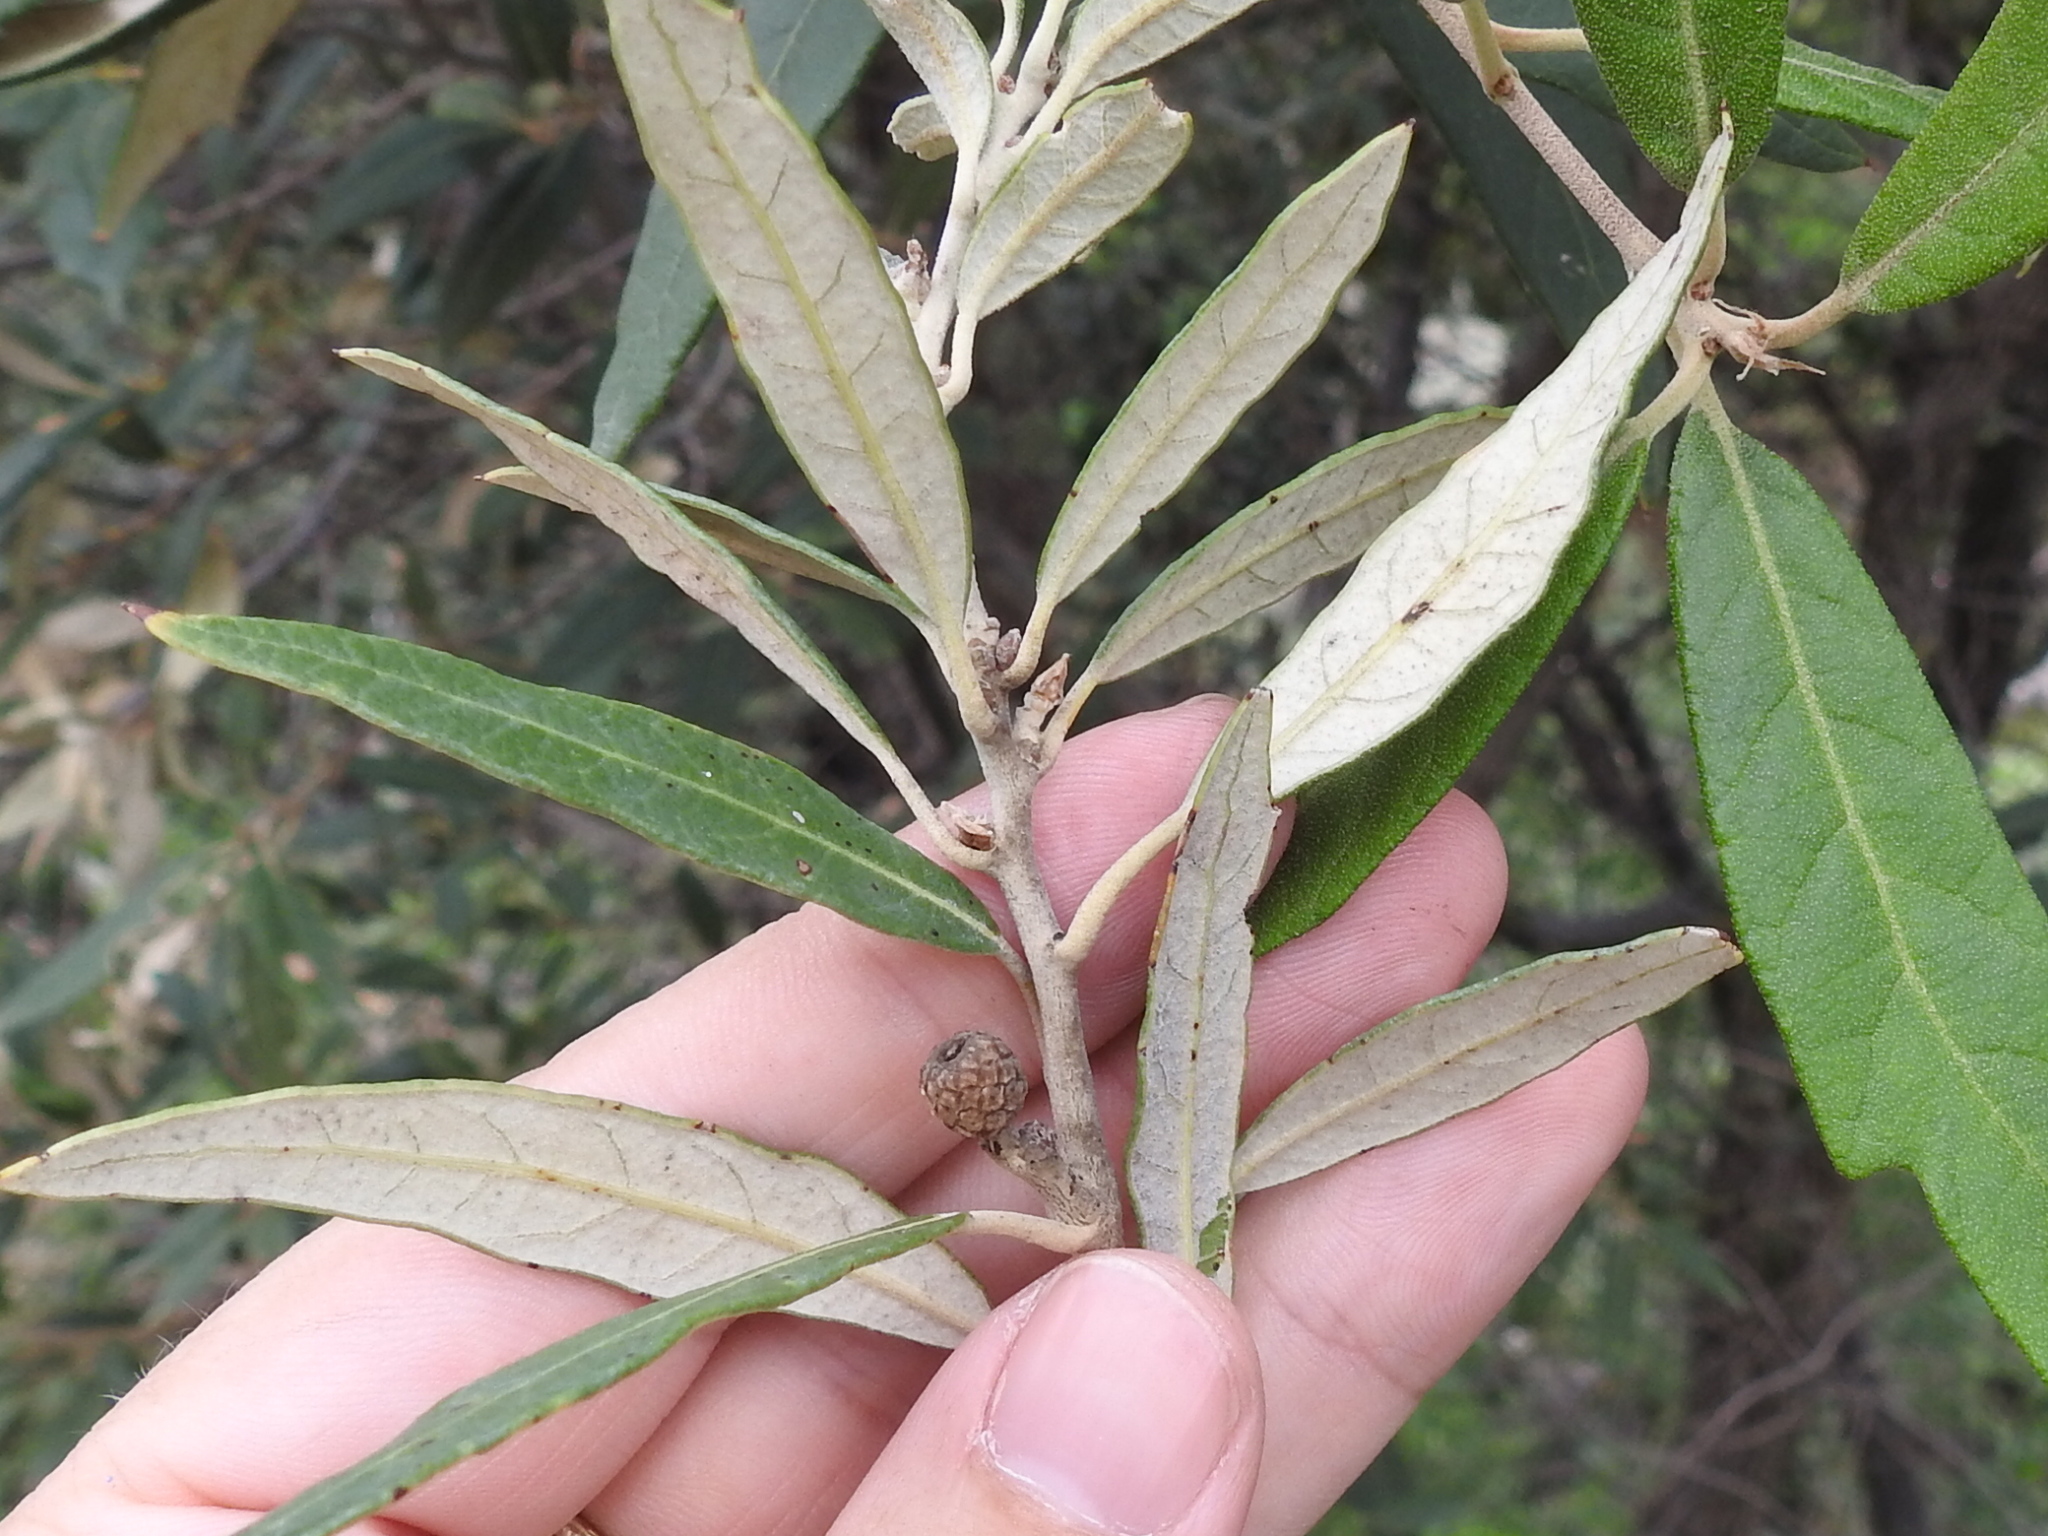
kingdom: Plantae
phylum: Tracheophyta
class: Magnoliopsida
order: Fagales
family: Fagaceae
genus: Quercus
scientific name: Quercus hypoleucoides
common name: Silverleaf oak
